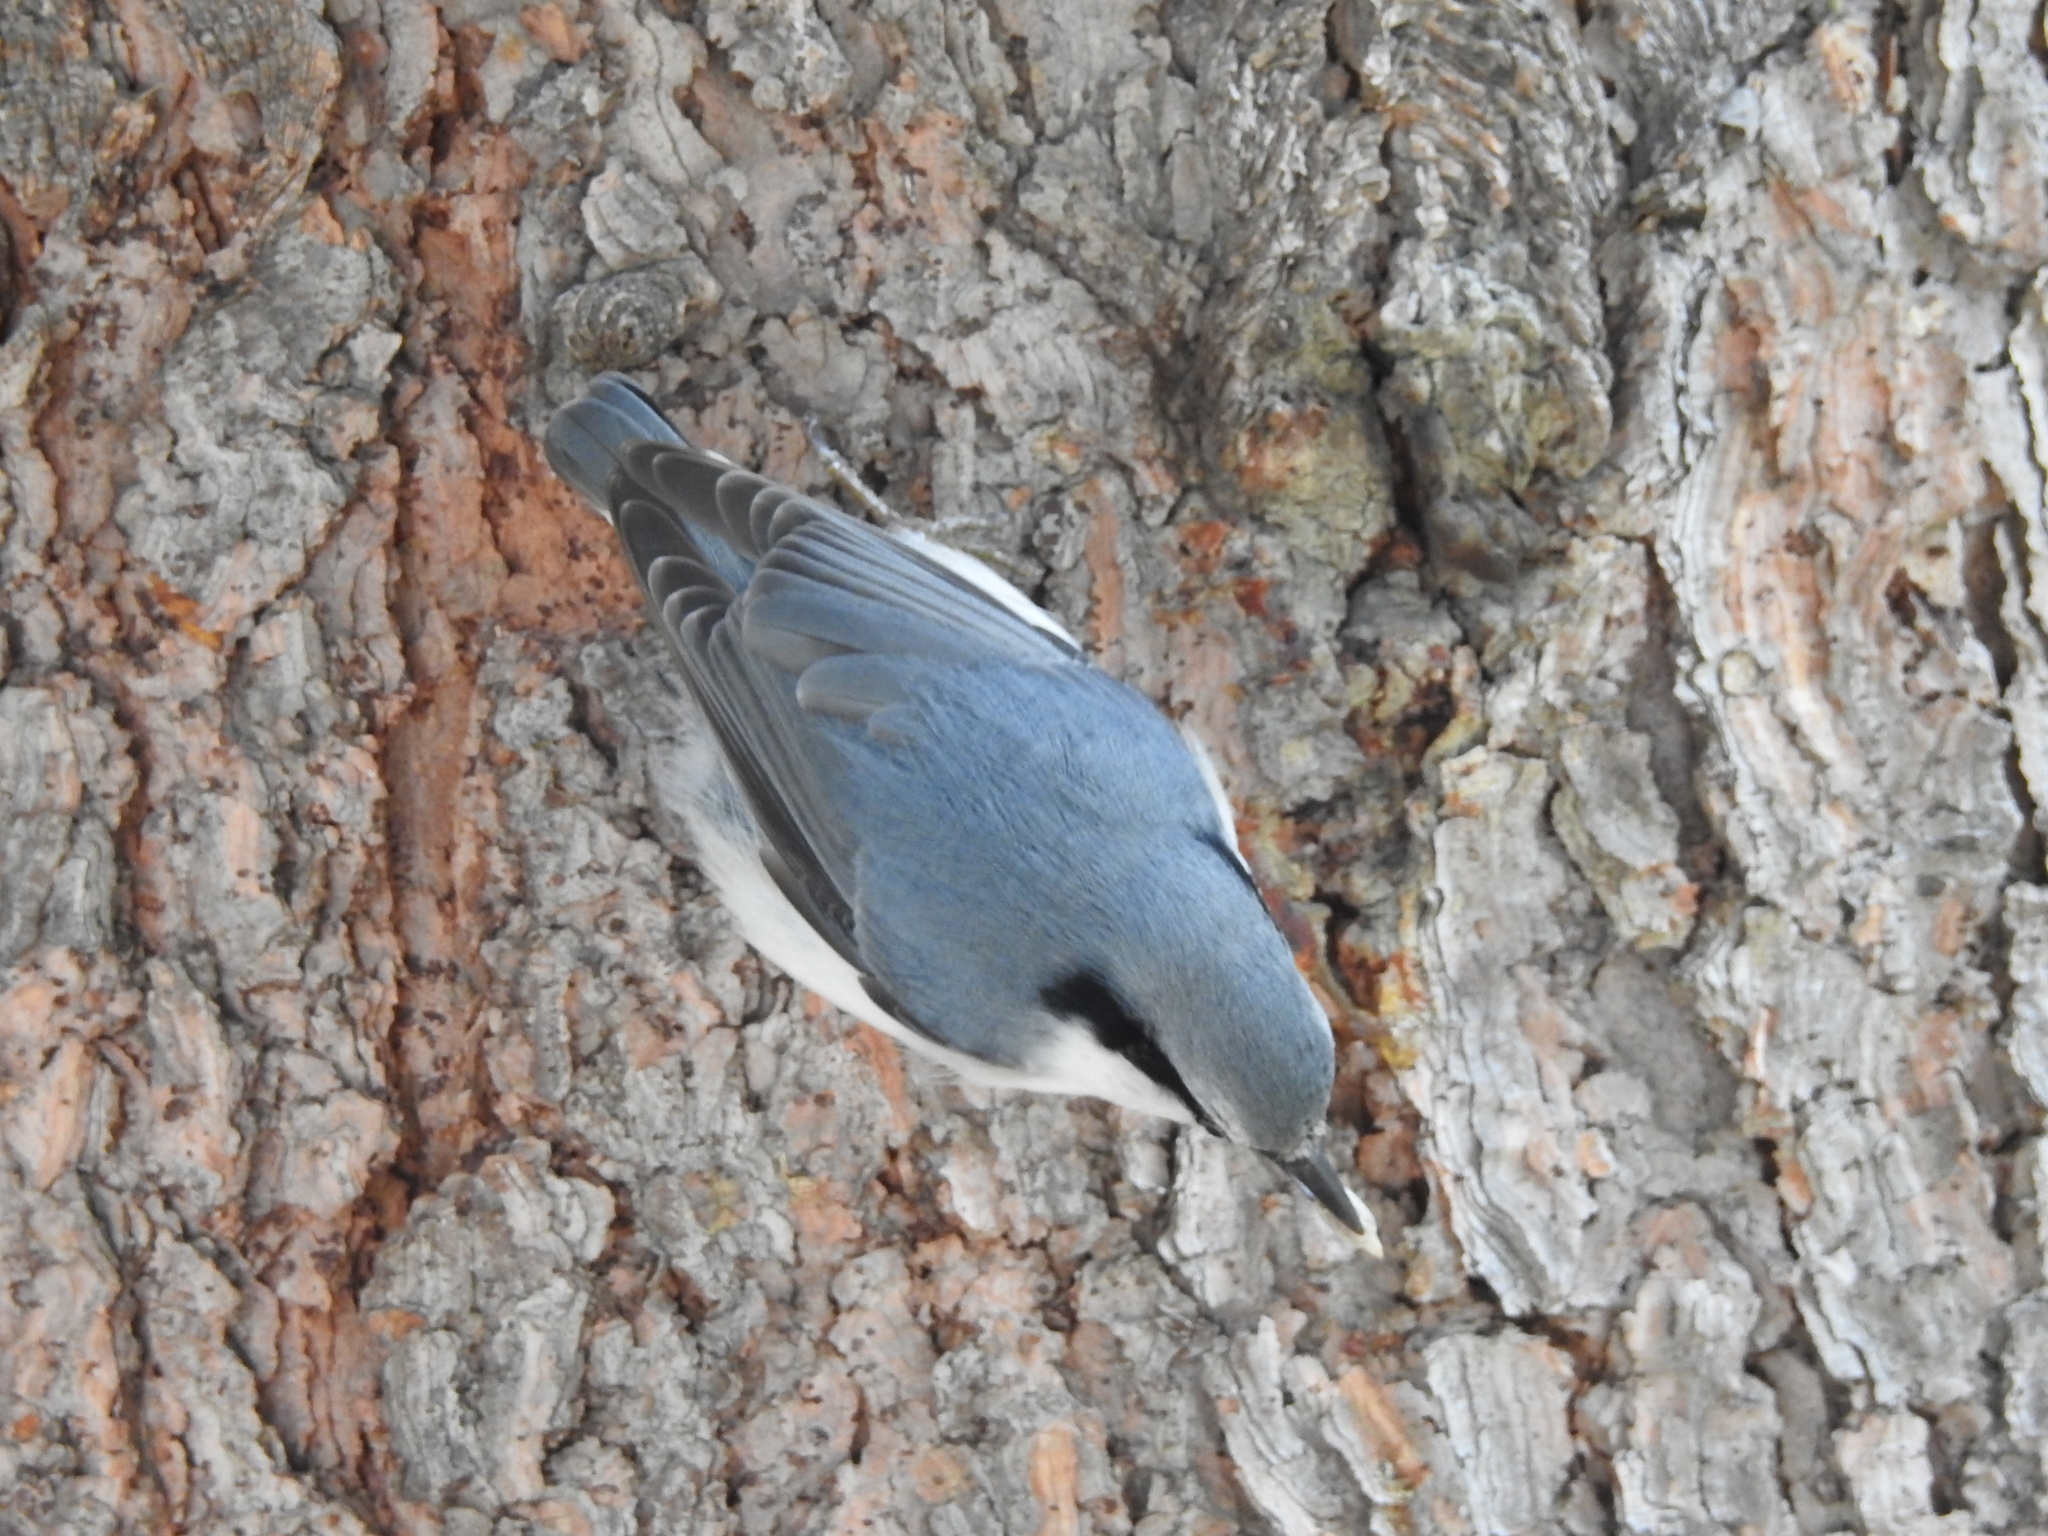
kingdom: Animalia
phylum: Chordata
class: Aves
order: Passeriformes
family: Sittidae
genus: Sitta
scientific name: Sitta europaea
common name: Eurasian nuthatch
